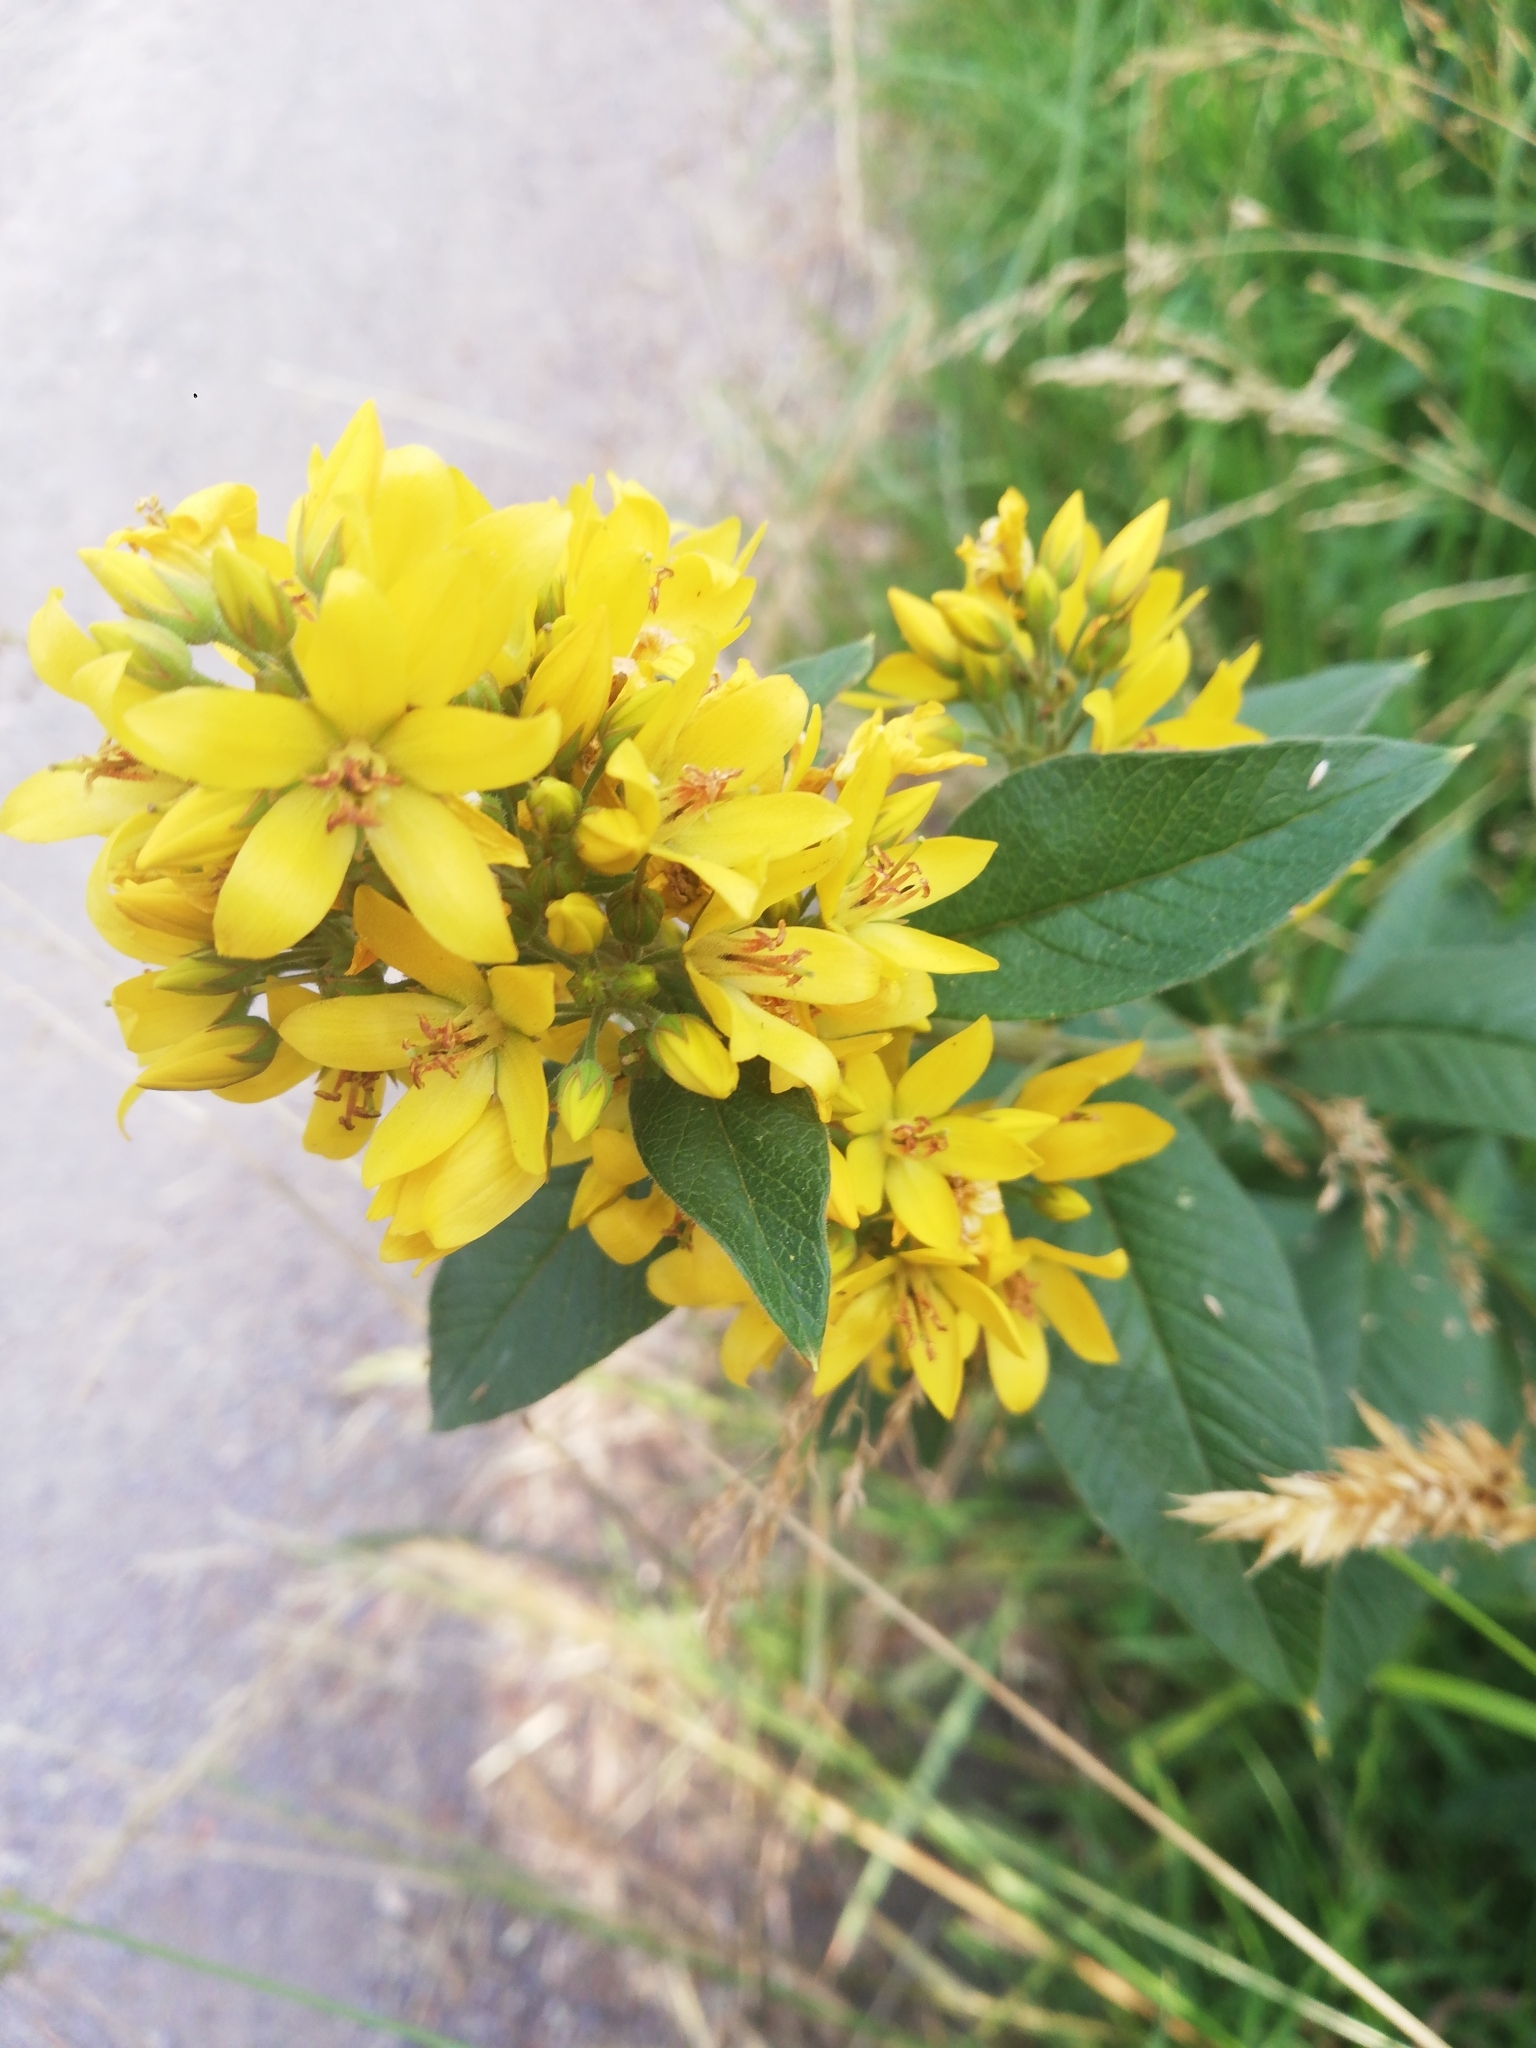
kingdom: Plantae
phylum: Tracheophyta
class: Magnoliopsida
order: Ericales
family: Primulaceae
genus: Lysimachia
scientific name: Lysimachia vulgaris
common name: Yellow loosestrife
